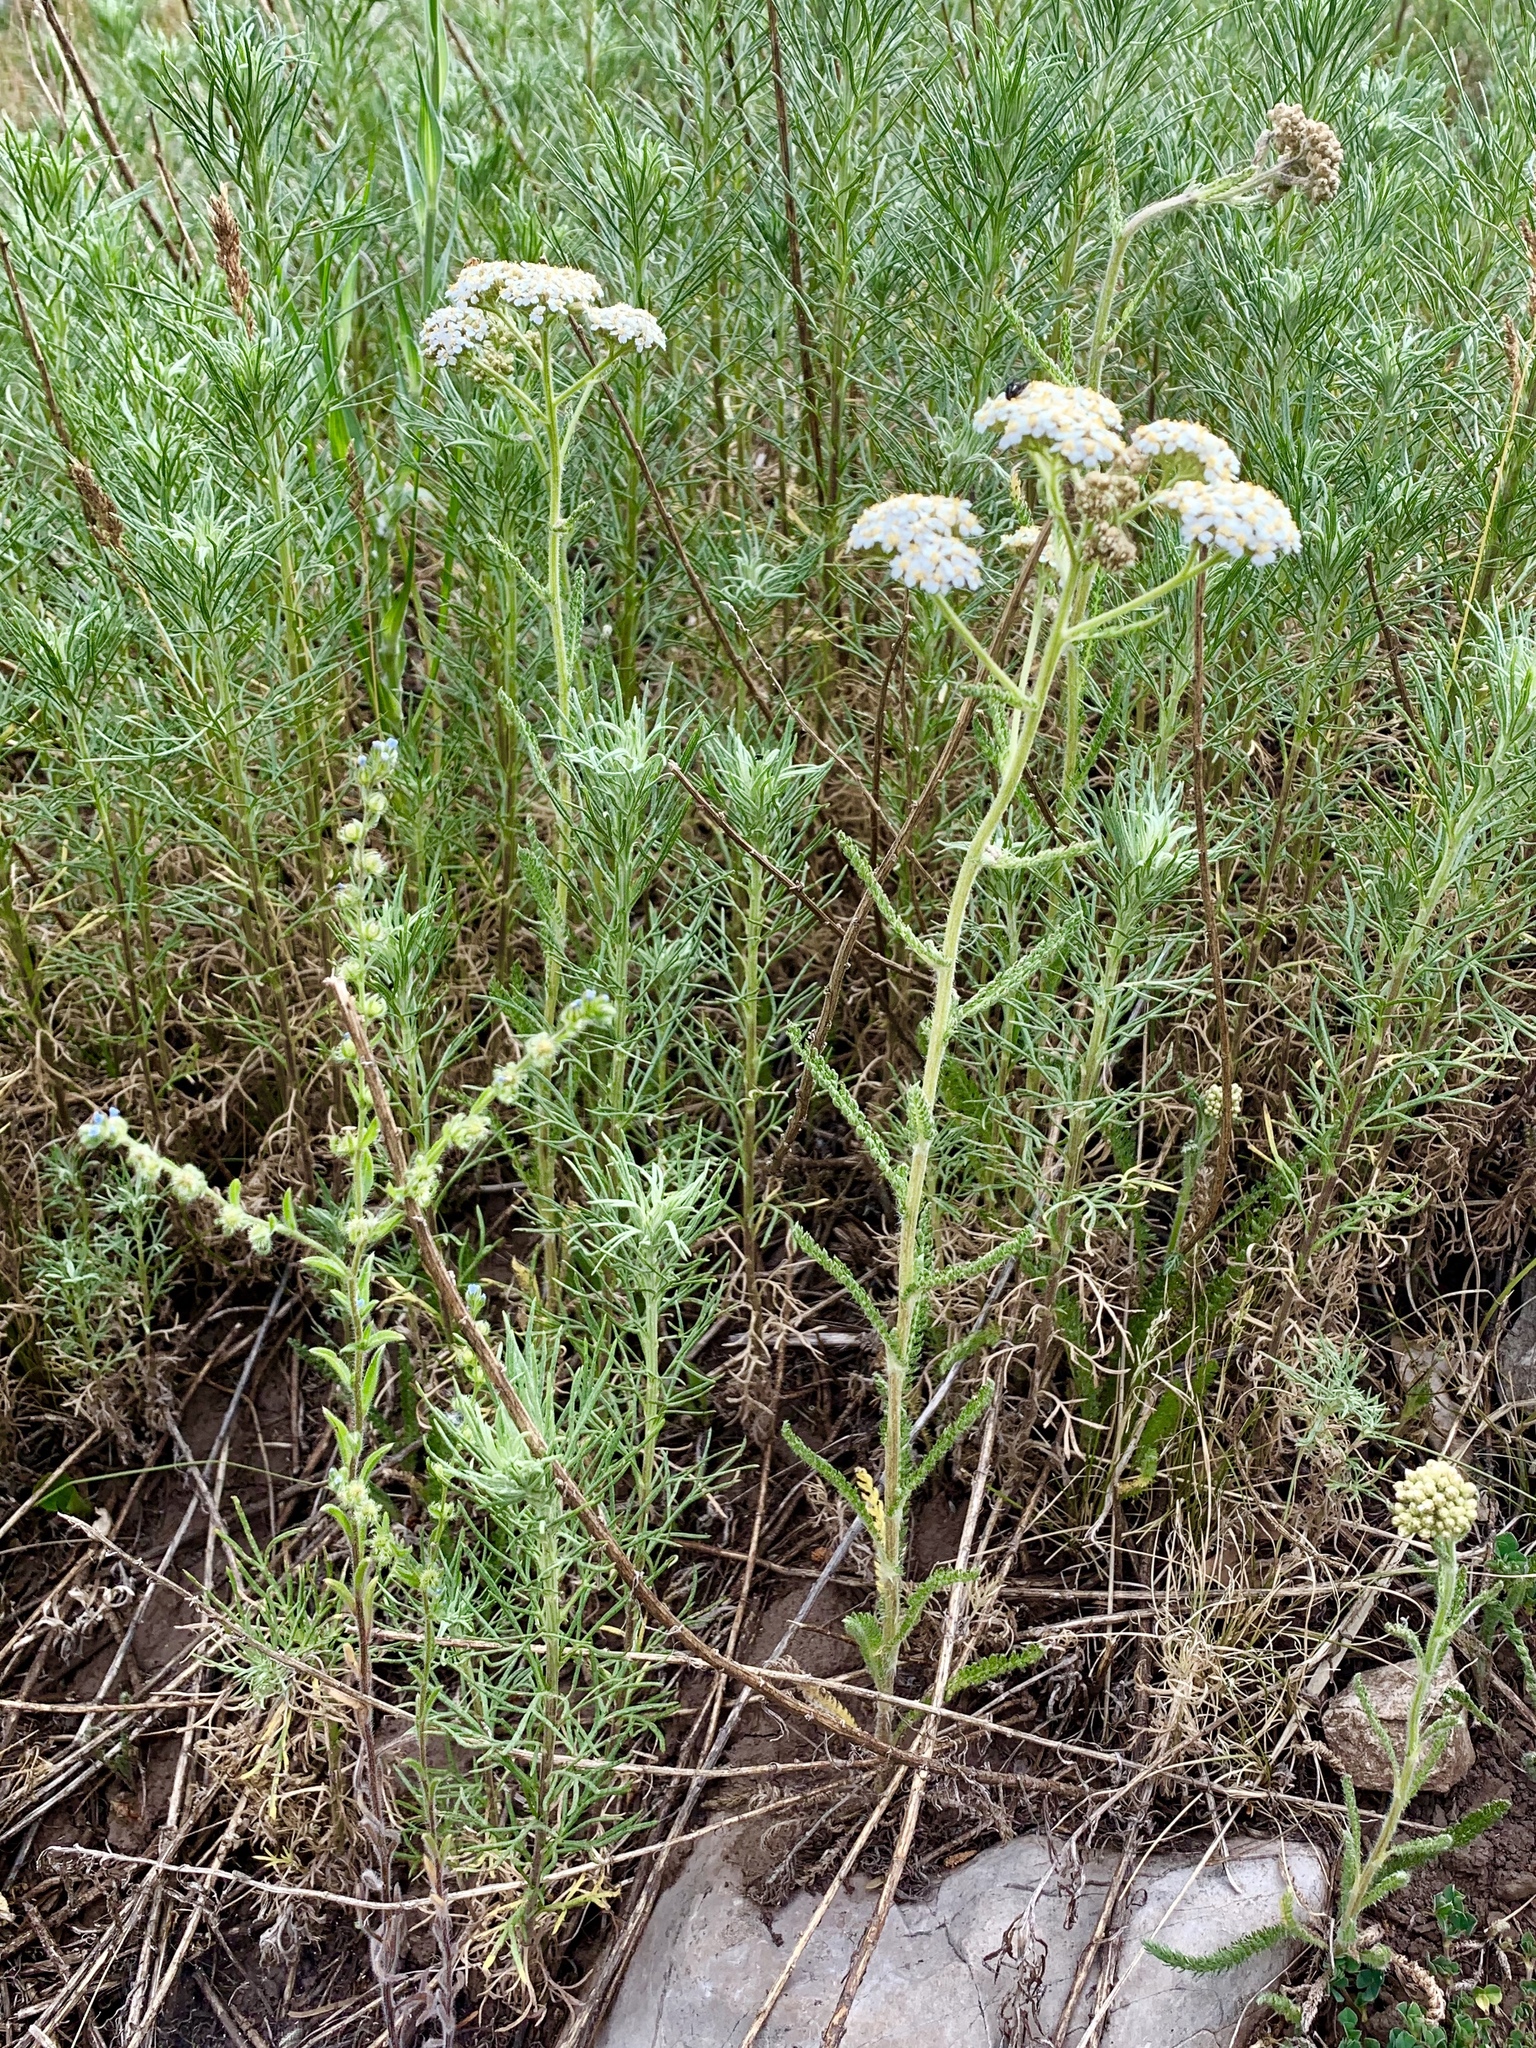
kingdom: Plantae
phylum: Tracheophyta
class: Magnoliopsida
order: Asterales
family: Asteraceae
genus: Achillea
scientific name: Achillea millefolium
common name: Yarrow
